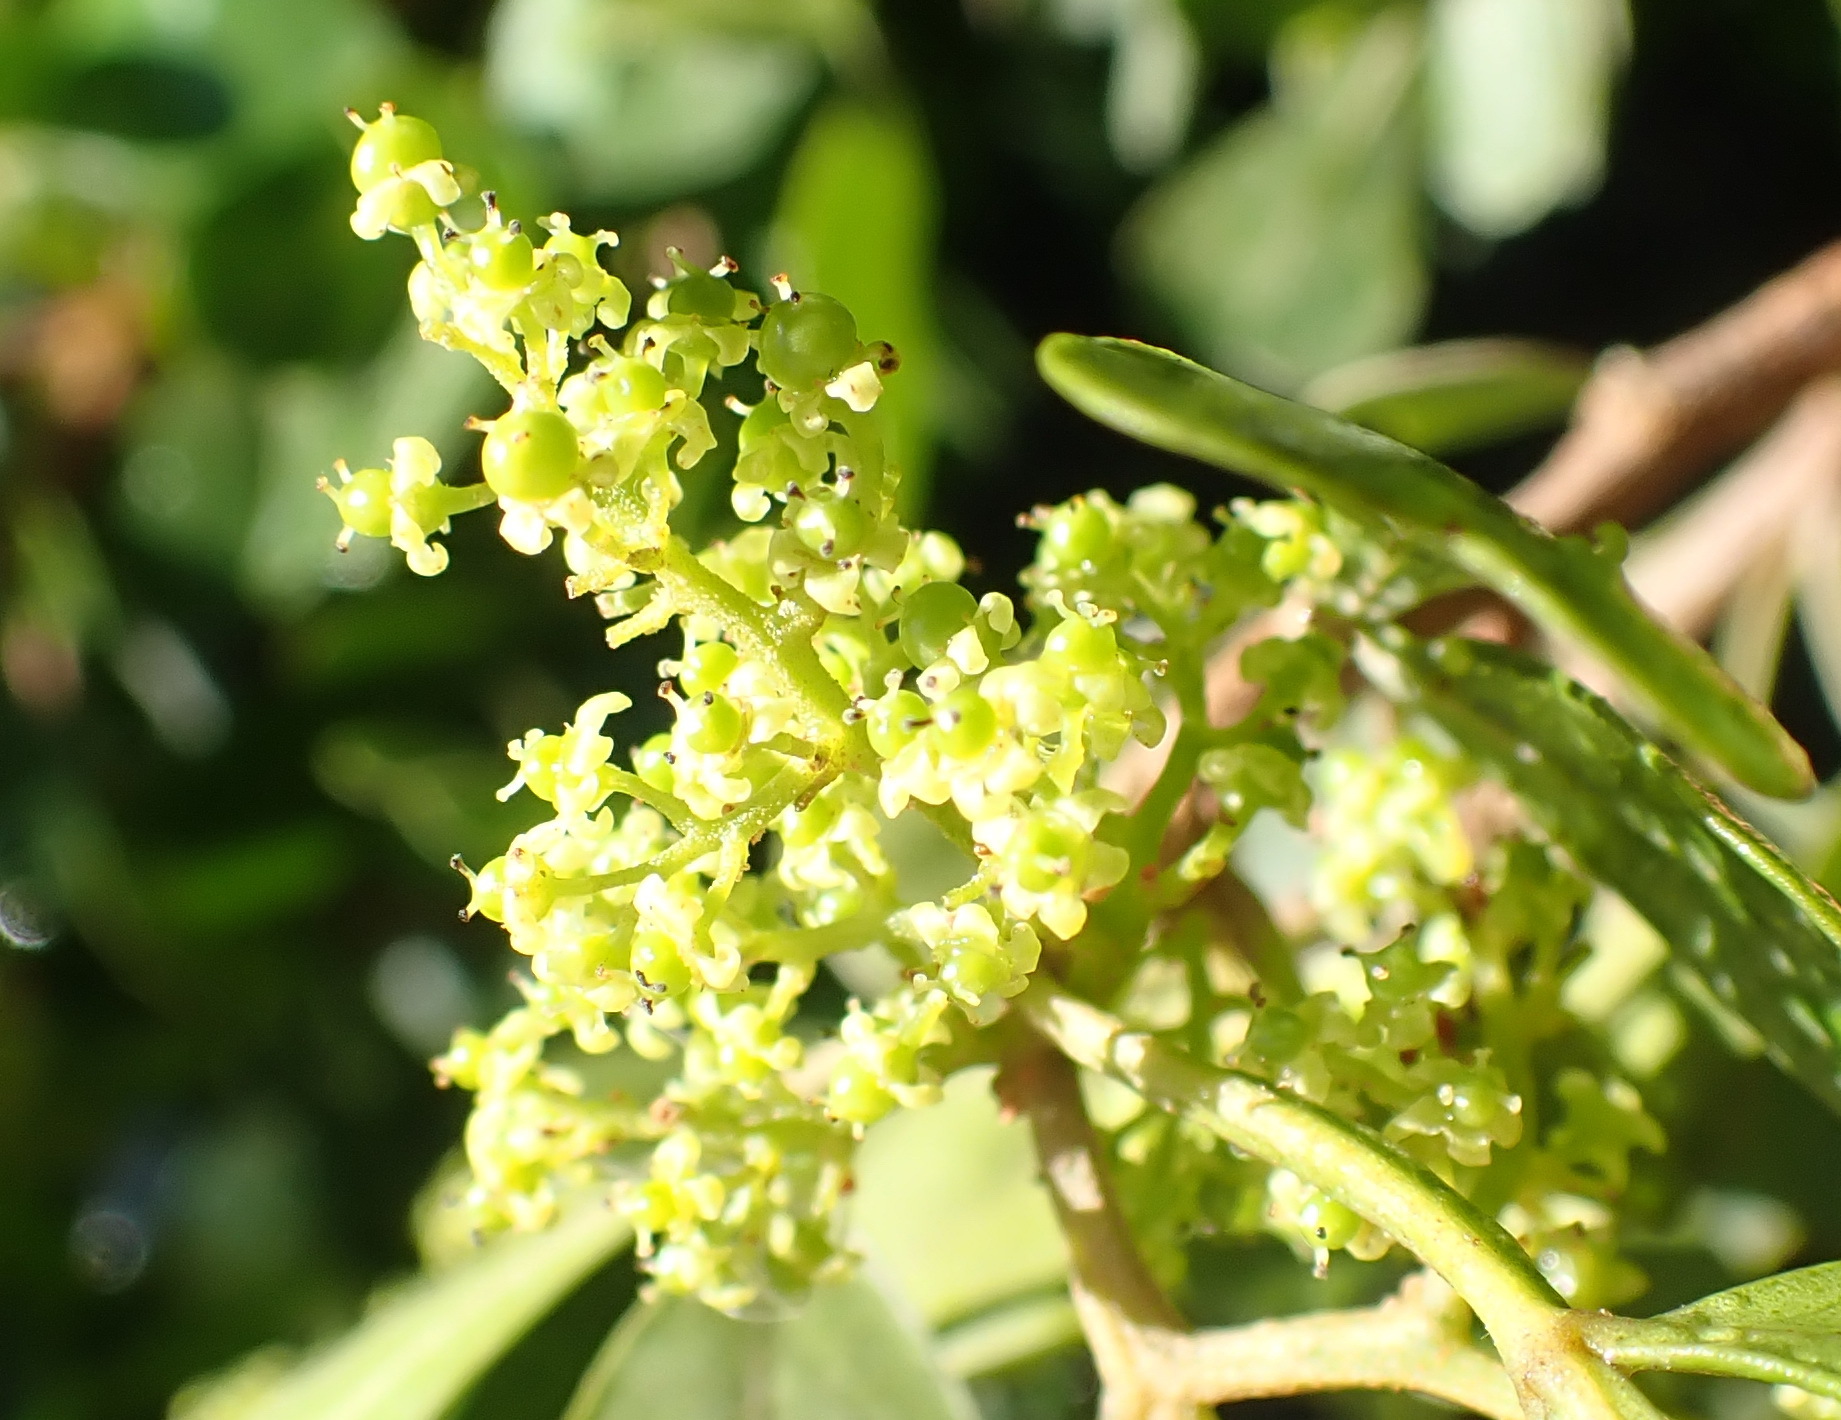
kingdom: Plantae
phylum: Tracheophyta
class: Magnoliopsida
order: Sapindales
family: Anacardiaceae
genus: Searsia
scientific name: Searsia glauca
